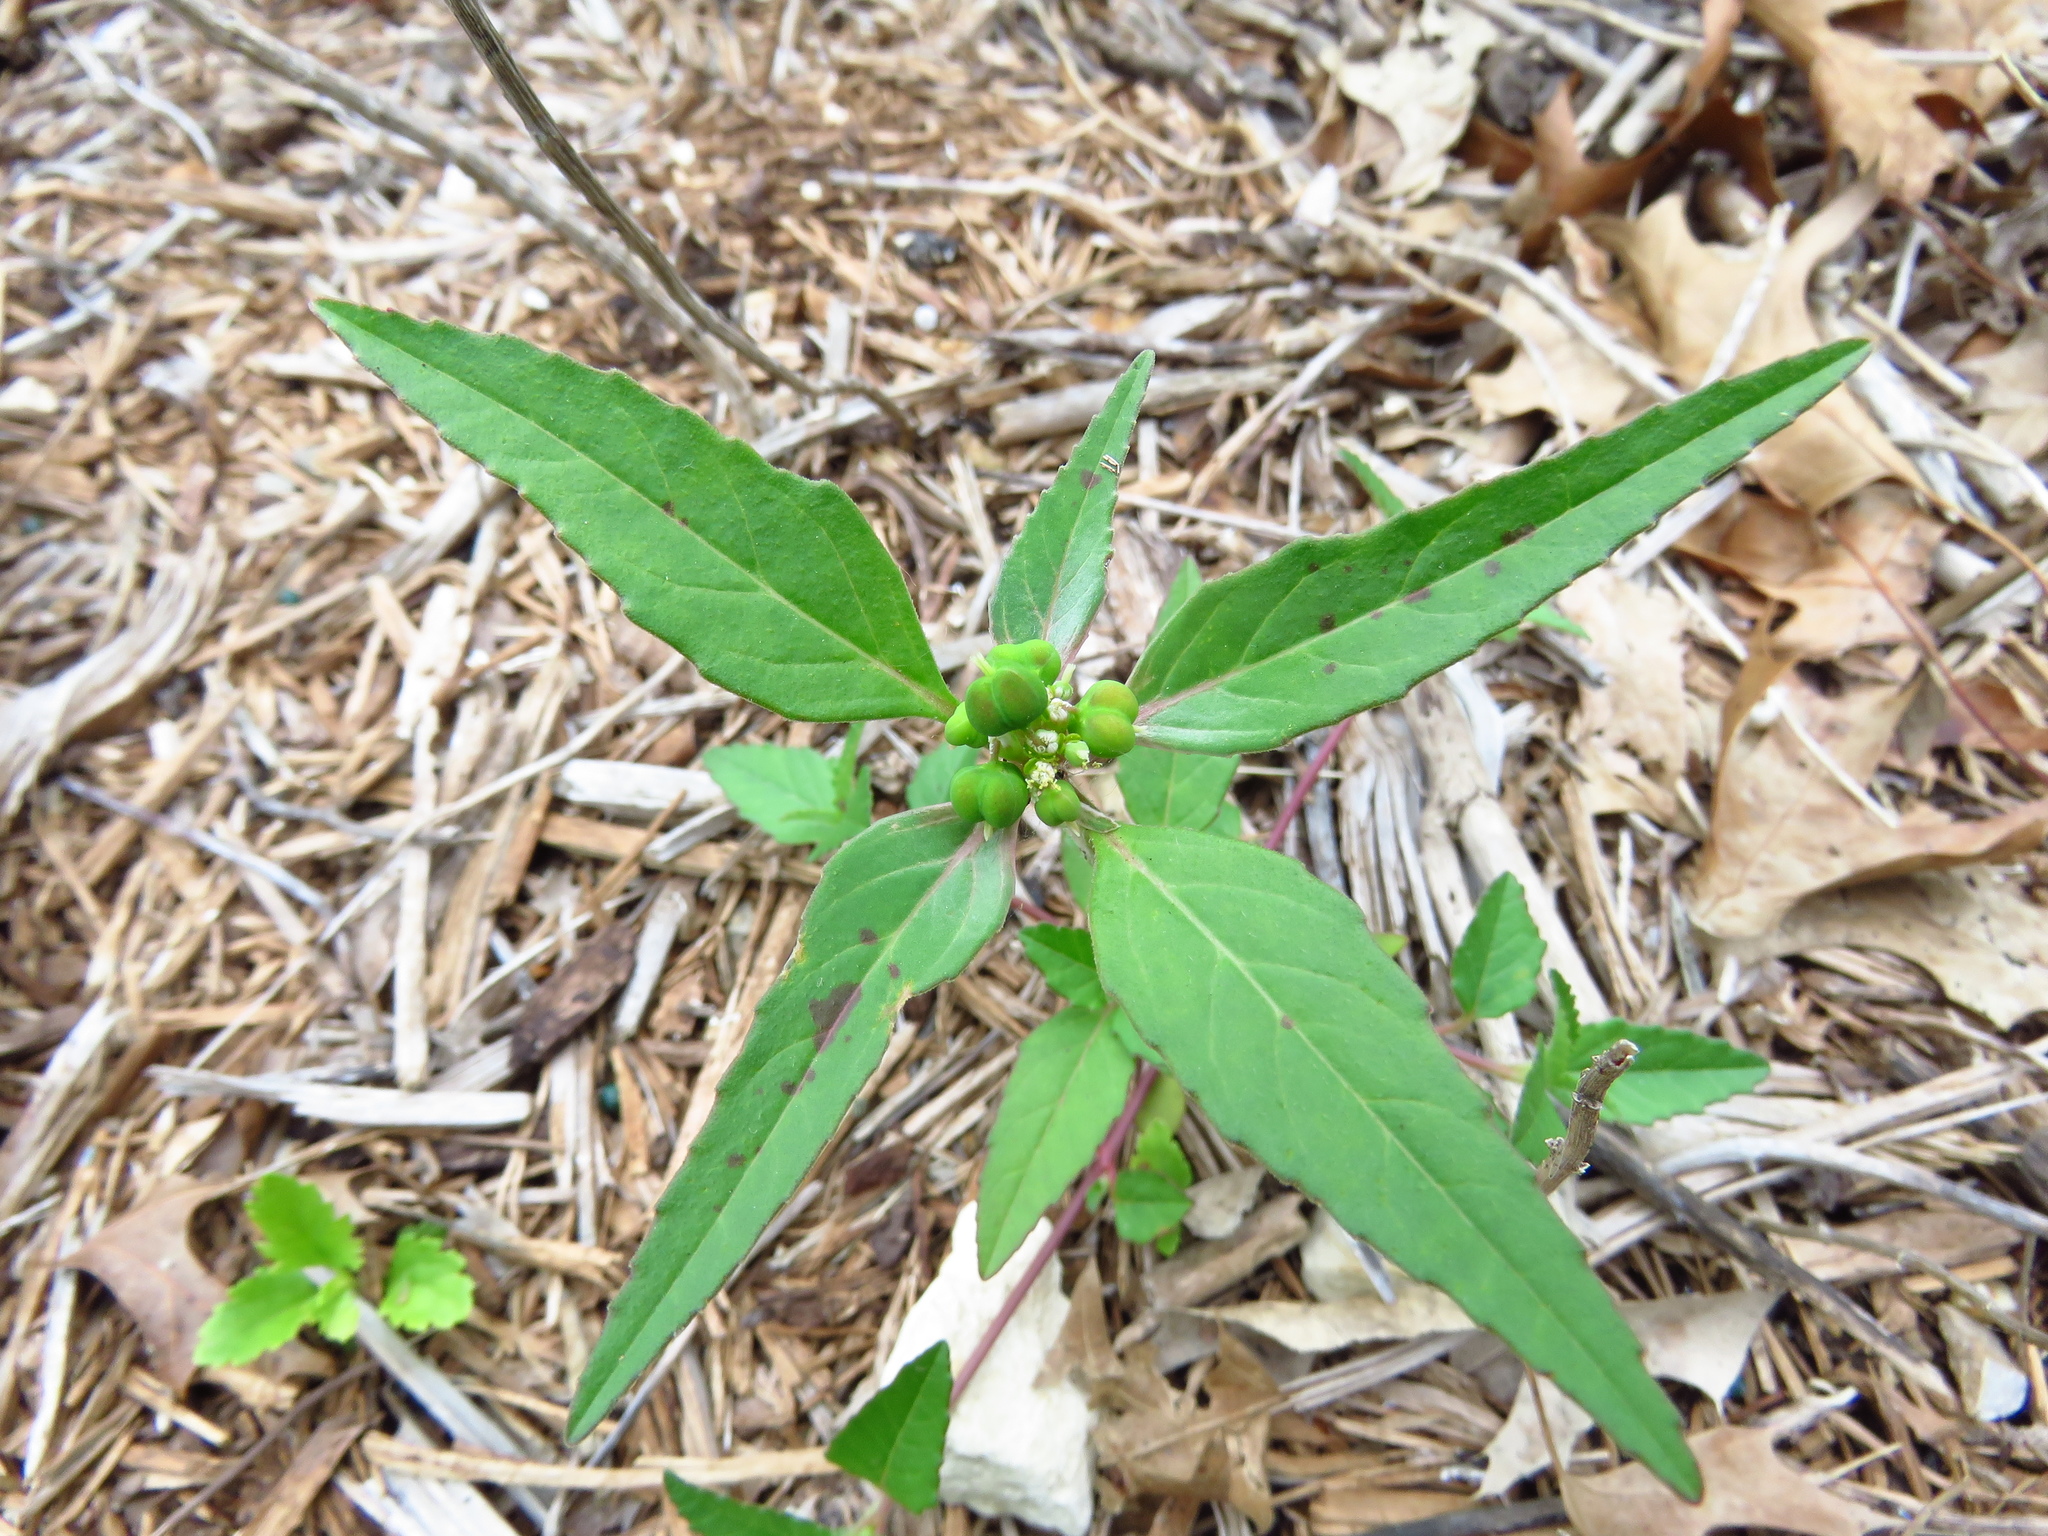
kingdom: Plantae
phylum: Tracheophyta
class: Magnoliopsida
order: Malpighiales
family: Euphorbiaceae
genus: Euphorbia
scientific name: Euphorbia dentata
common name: Dentate spurge
